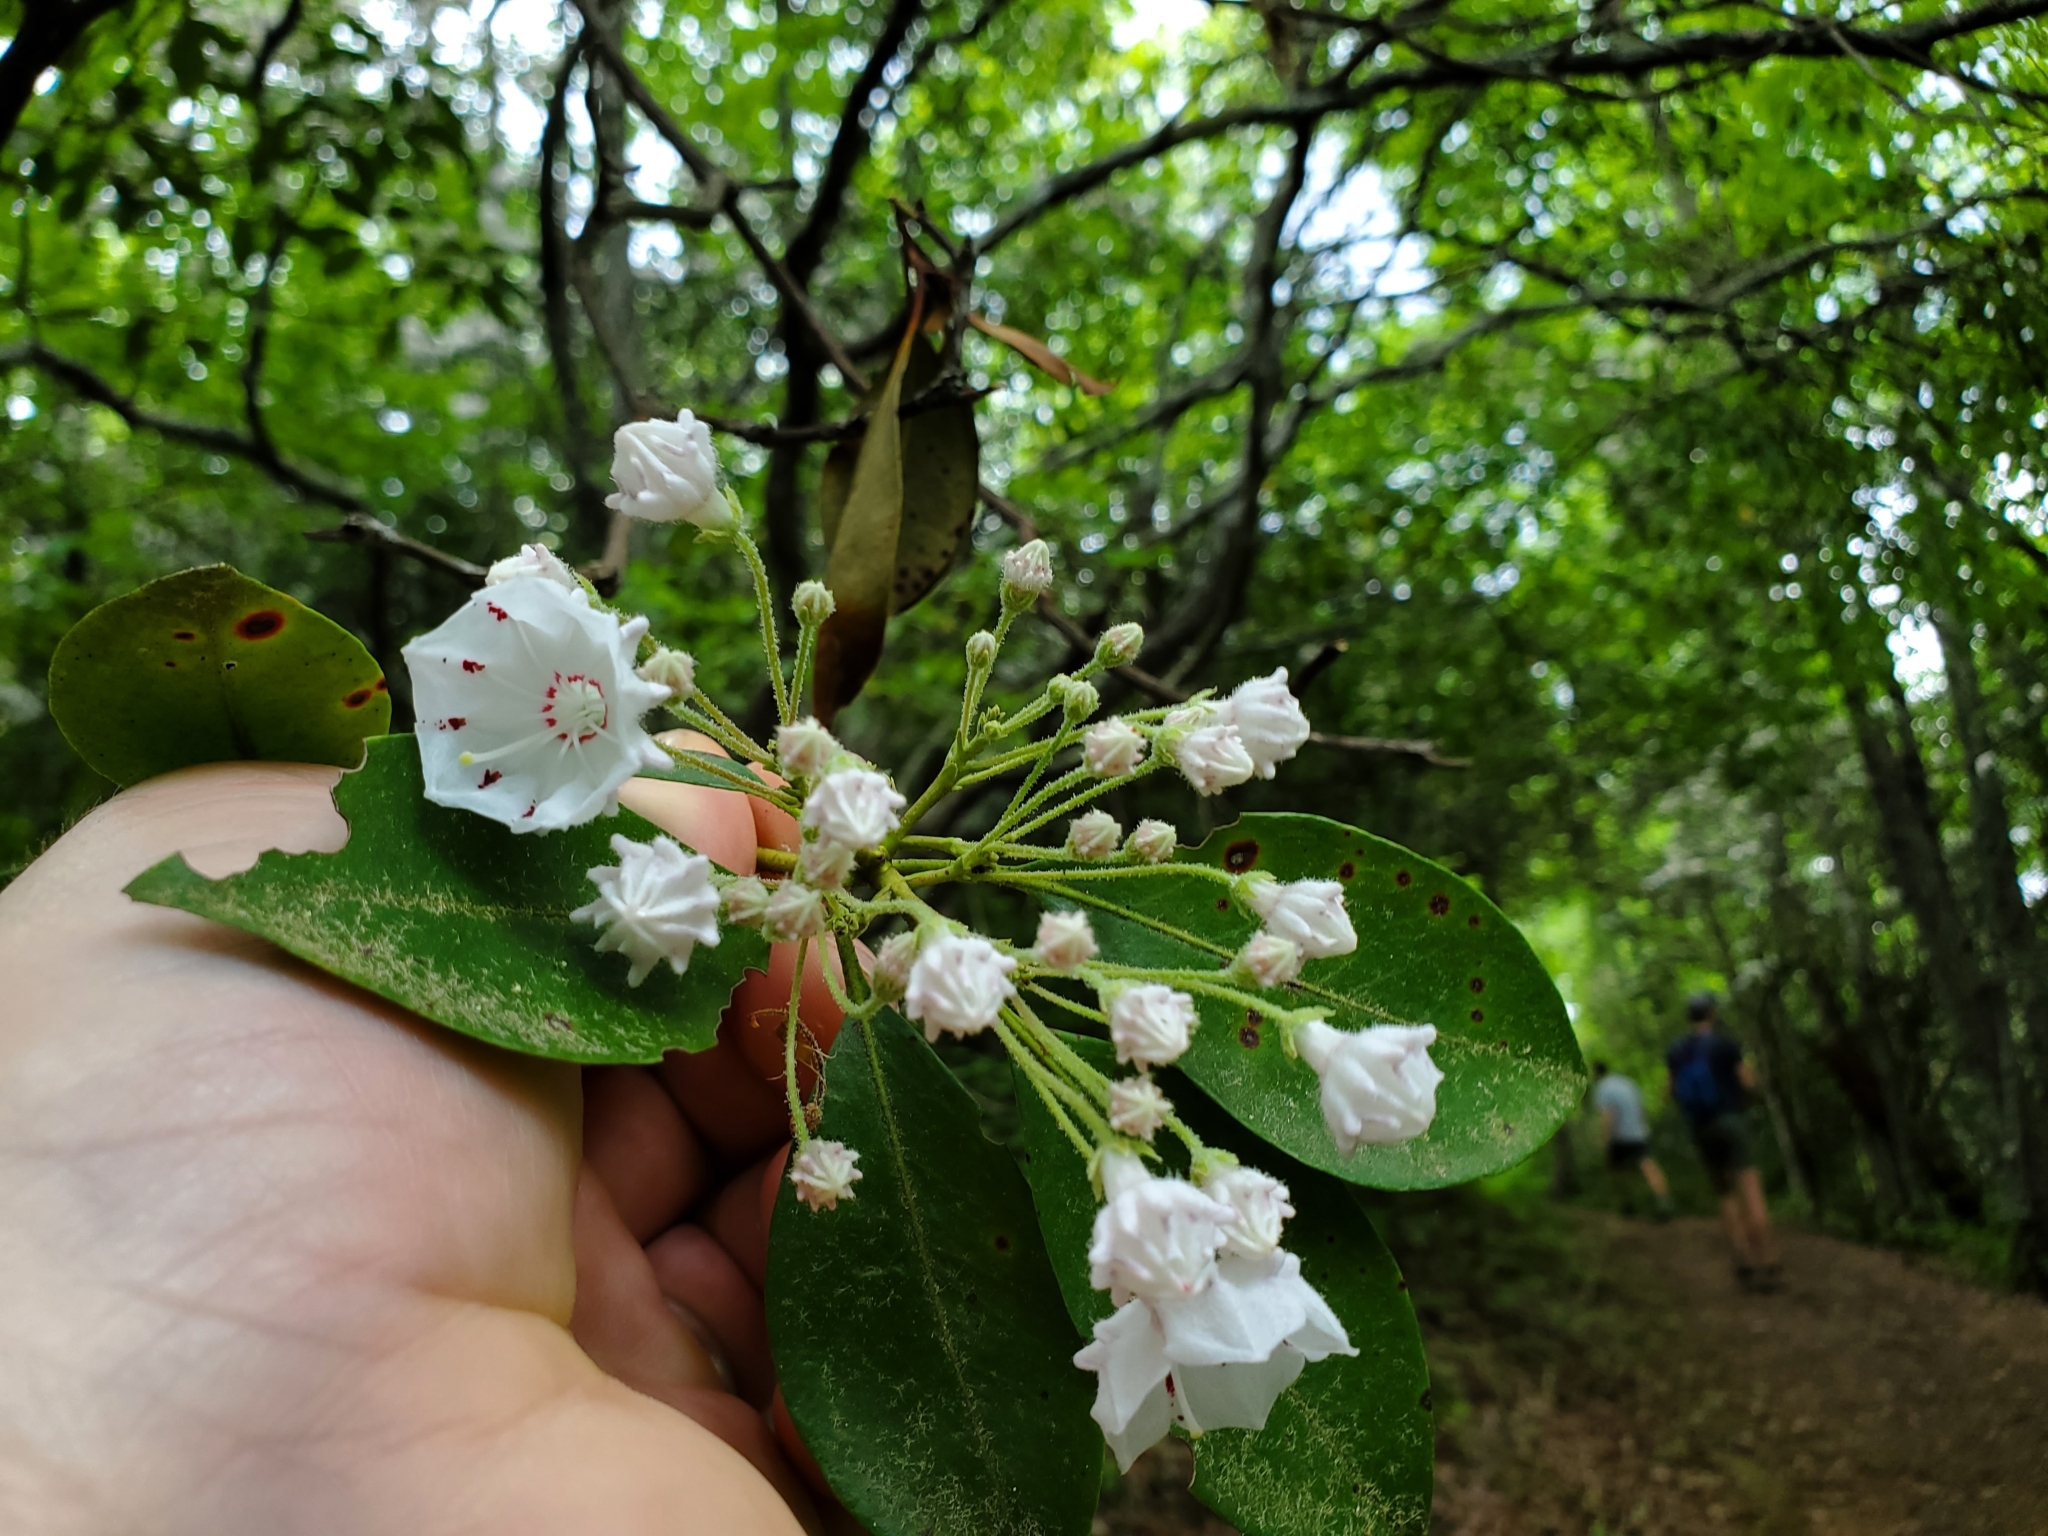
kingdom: Plantae
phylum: Tracheophyta
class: Magnoliopsida
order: Ericales
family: Ericaceae
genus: Kalmia
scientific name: Kalmia latifolia
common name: Mountain-laurel
